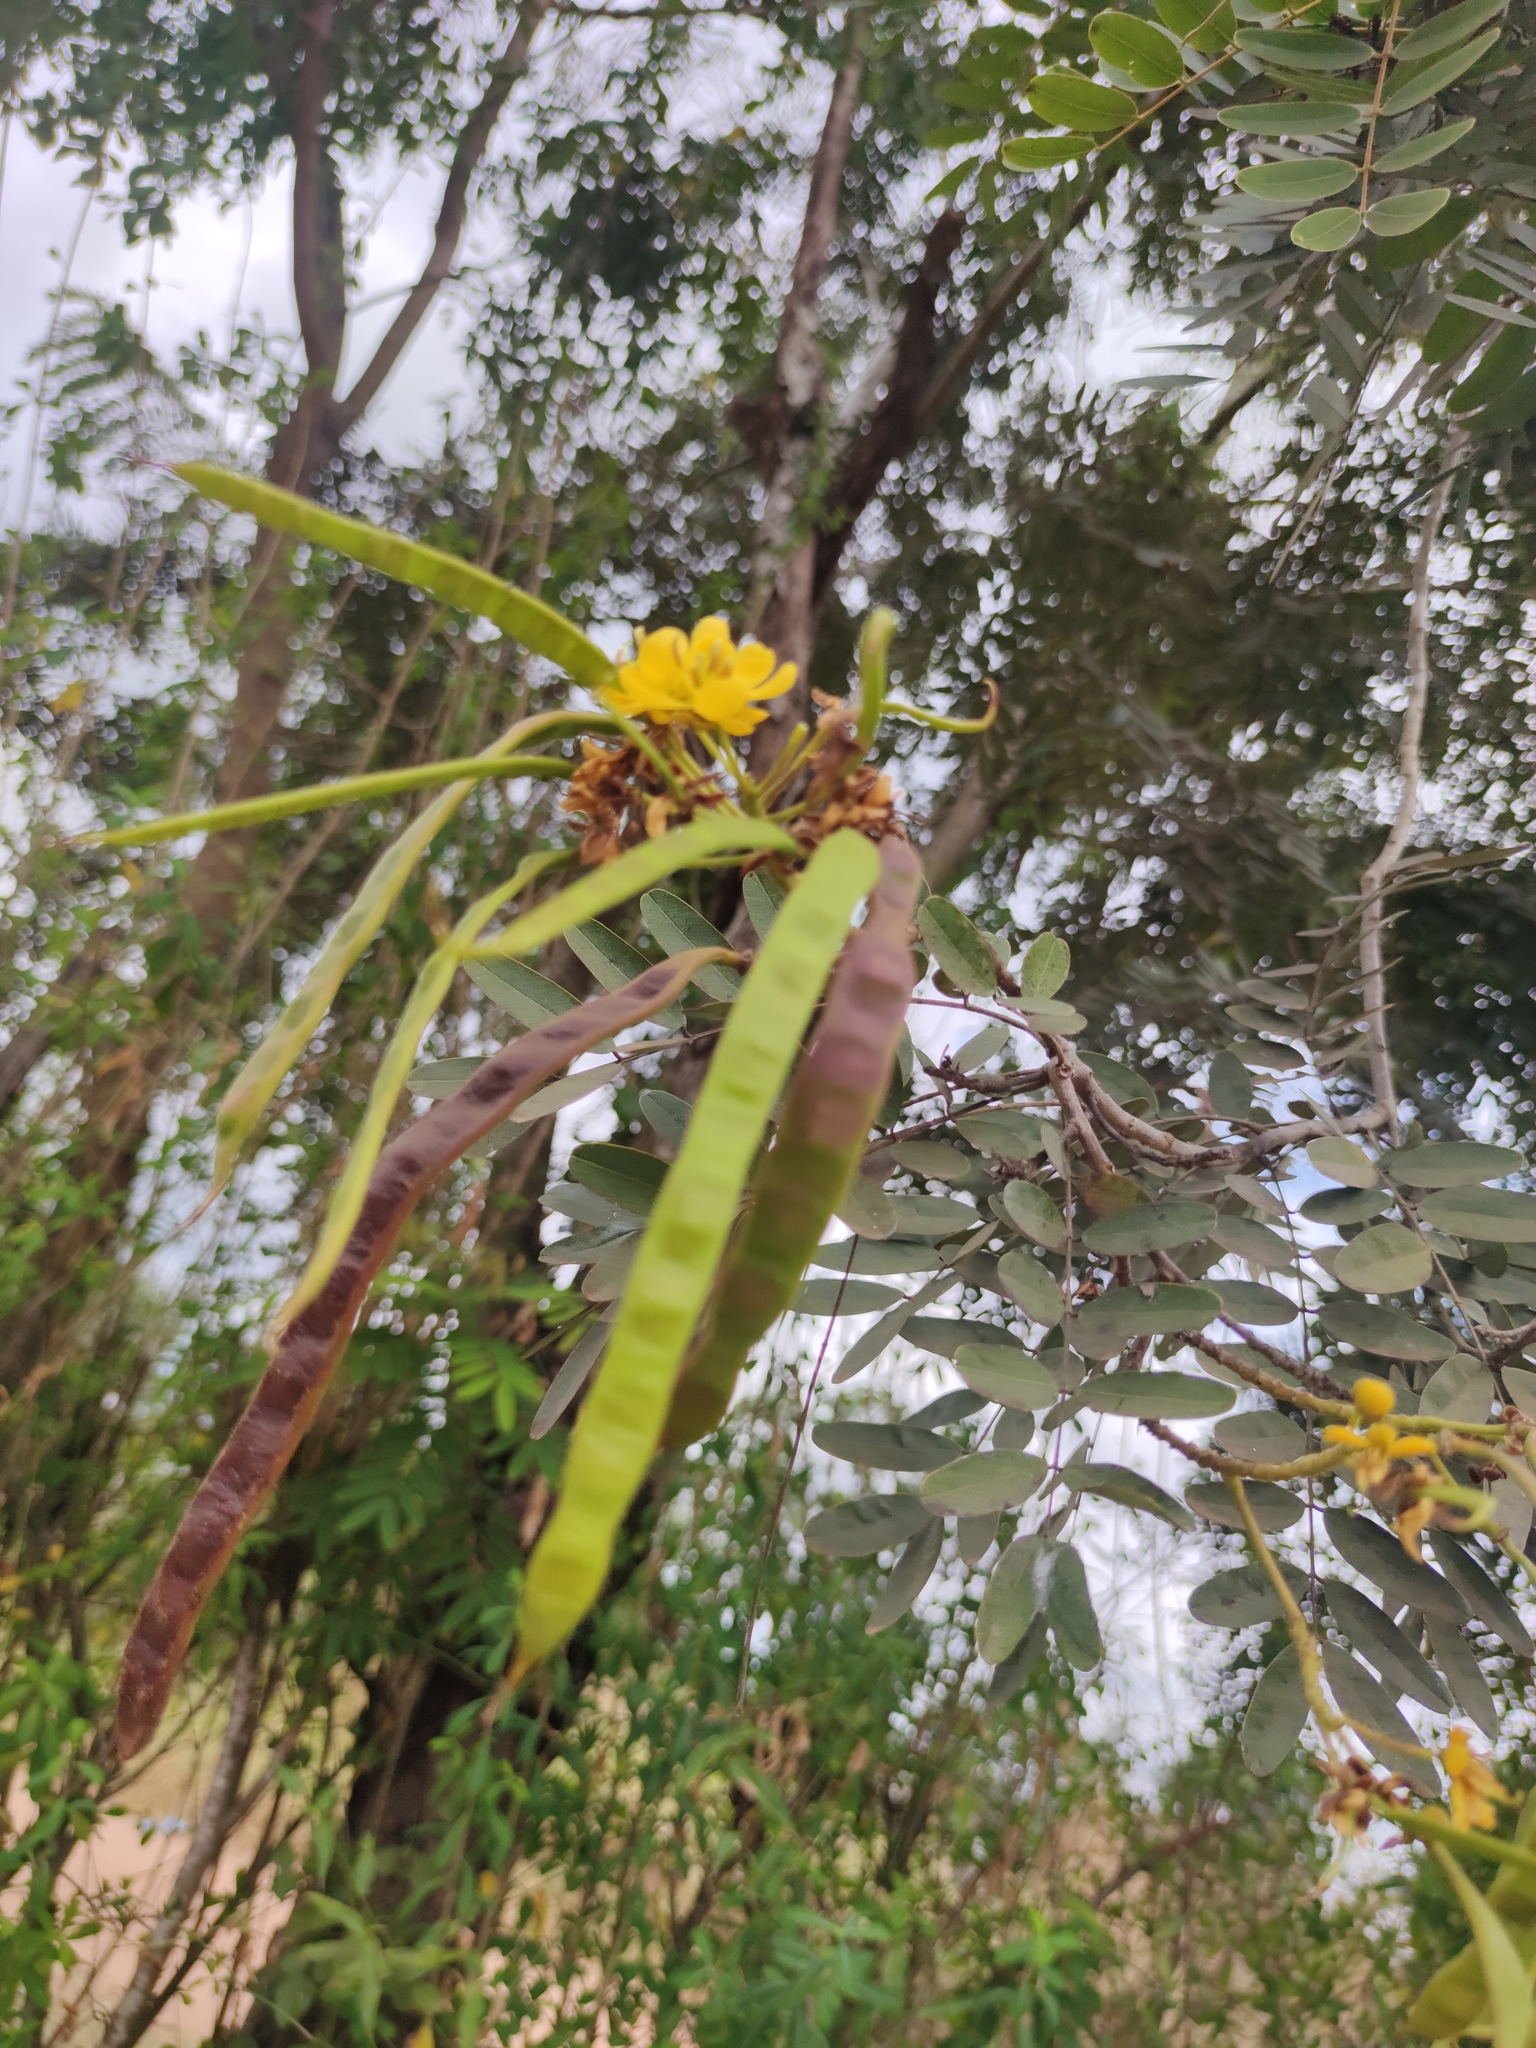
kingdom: Plantae
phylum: Tracheophyta
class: Magnoliopsida
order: Fabales
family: Fabaceae
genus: Senna
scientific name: Senna siamea
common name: Siamese cassia
